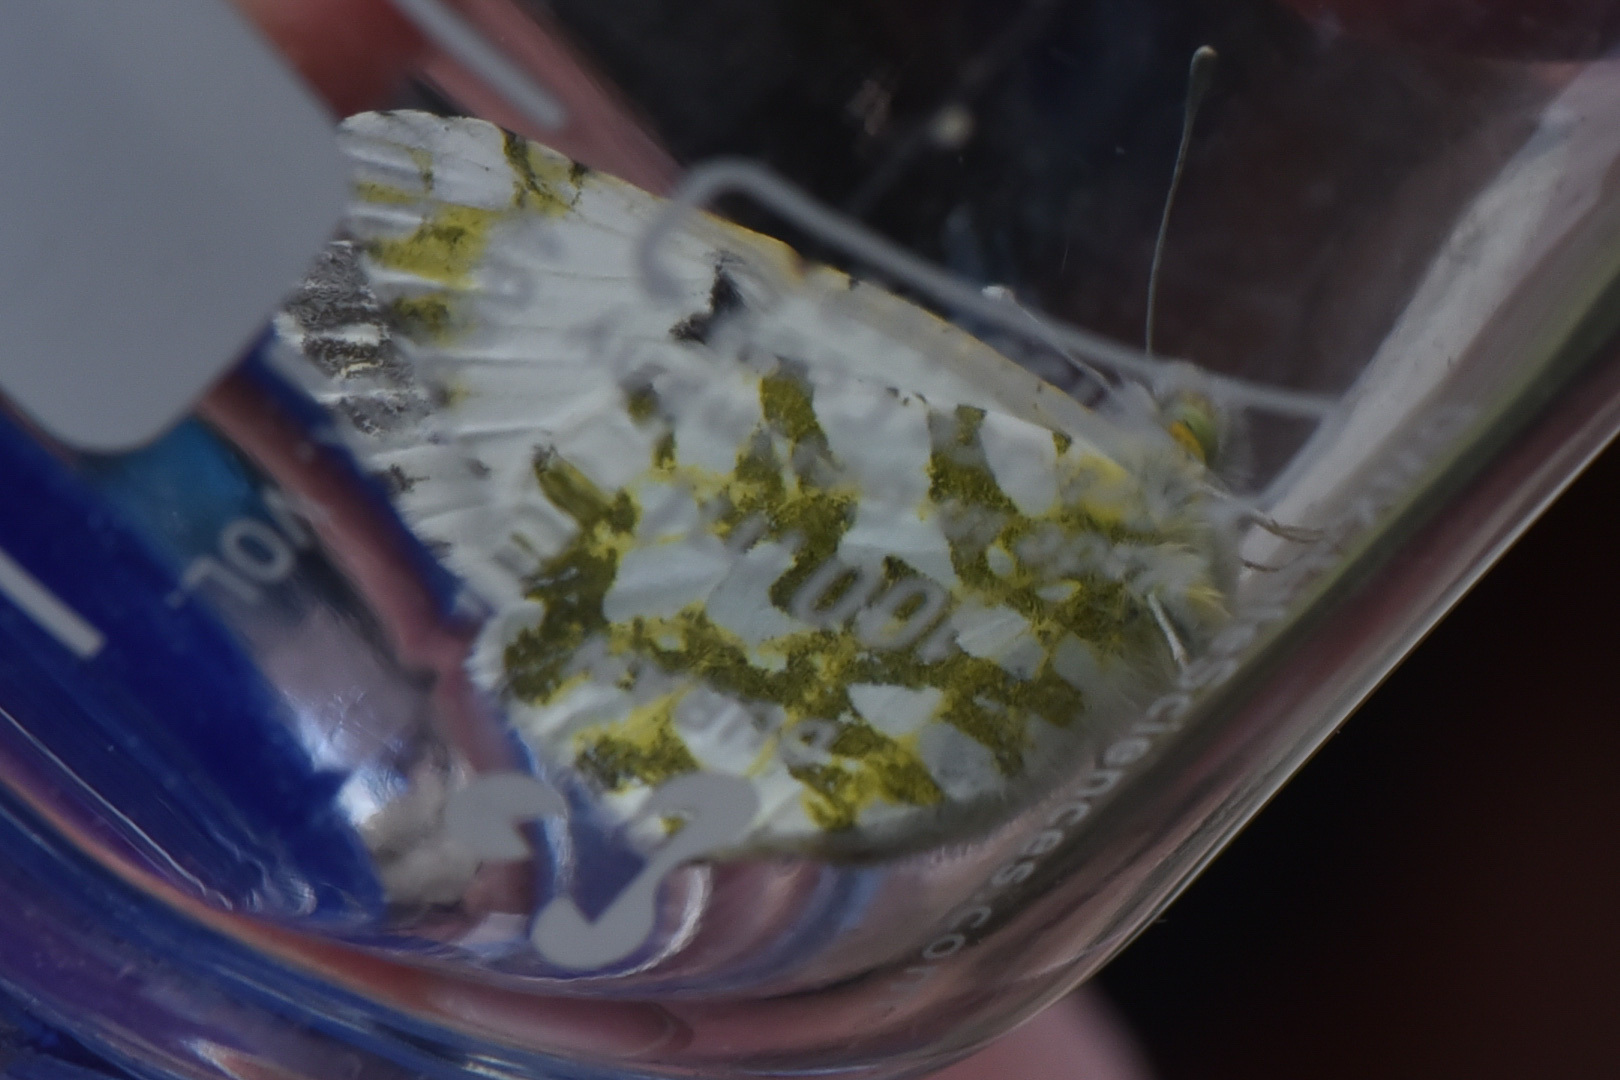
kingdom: Animalia
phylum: Arthropoda
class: Insecta
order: Lepidoptera
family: Pieridae
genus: Euchloe
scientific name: Euchloe ausonides
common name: Creamy marblewing
